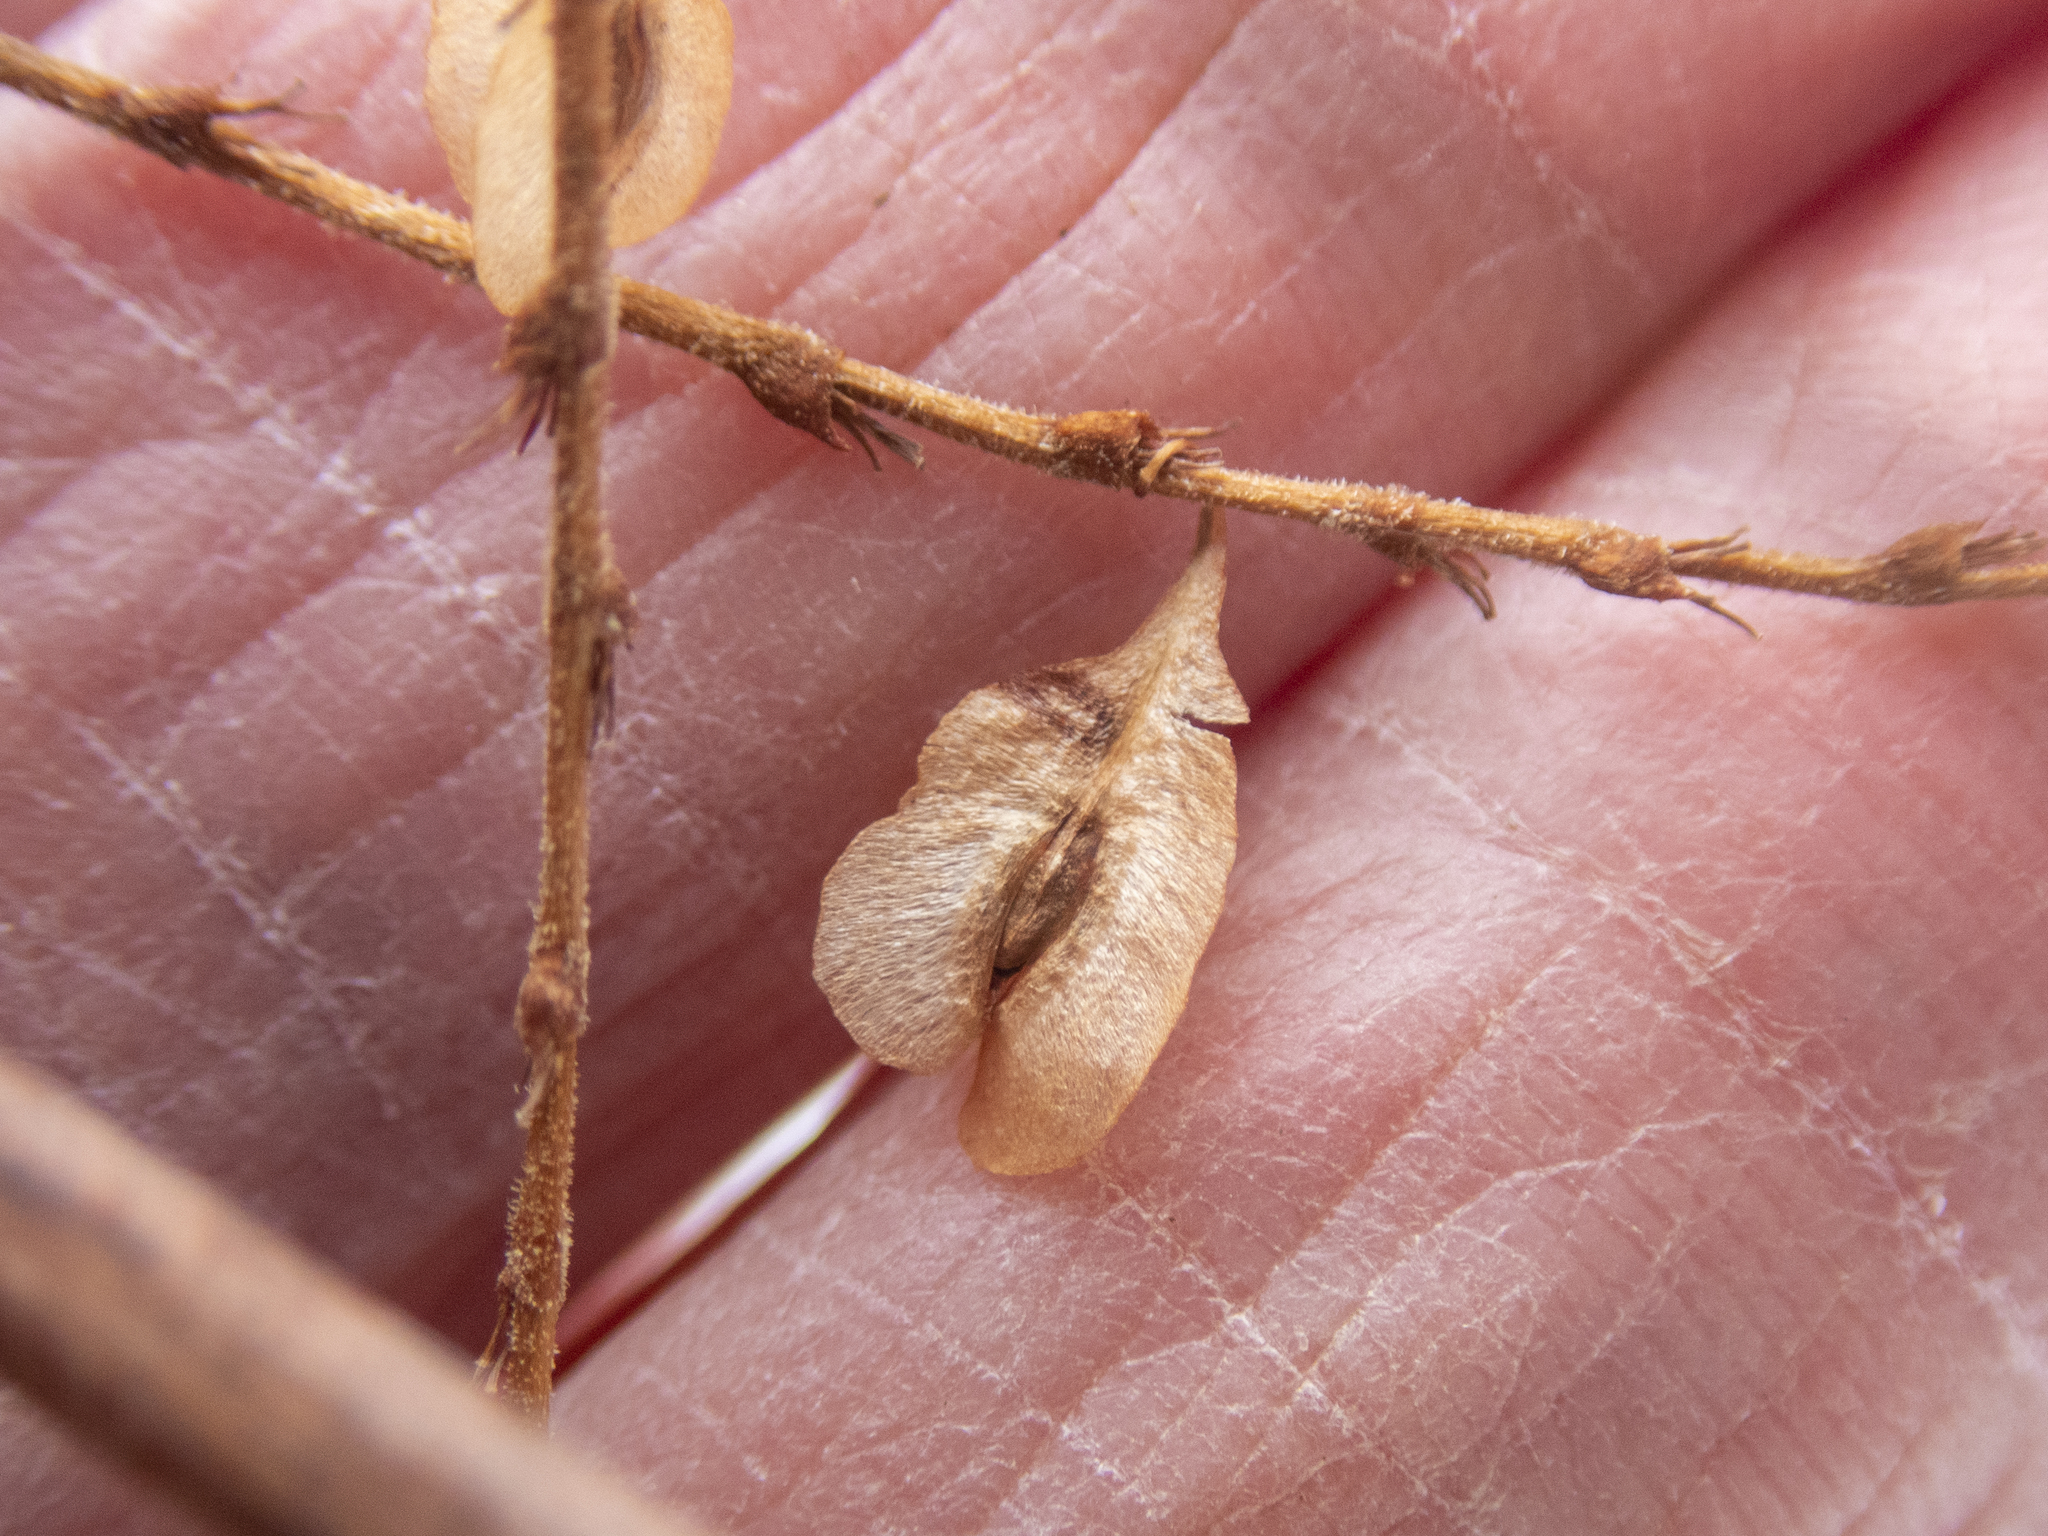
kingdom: Plantae
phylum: Tracheophyta
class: Magnoliopsida
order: Caryophyllales
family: Polygonaceae
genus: Reynoutria
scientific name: Reynoutria japonica
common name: Japanese knotweed
